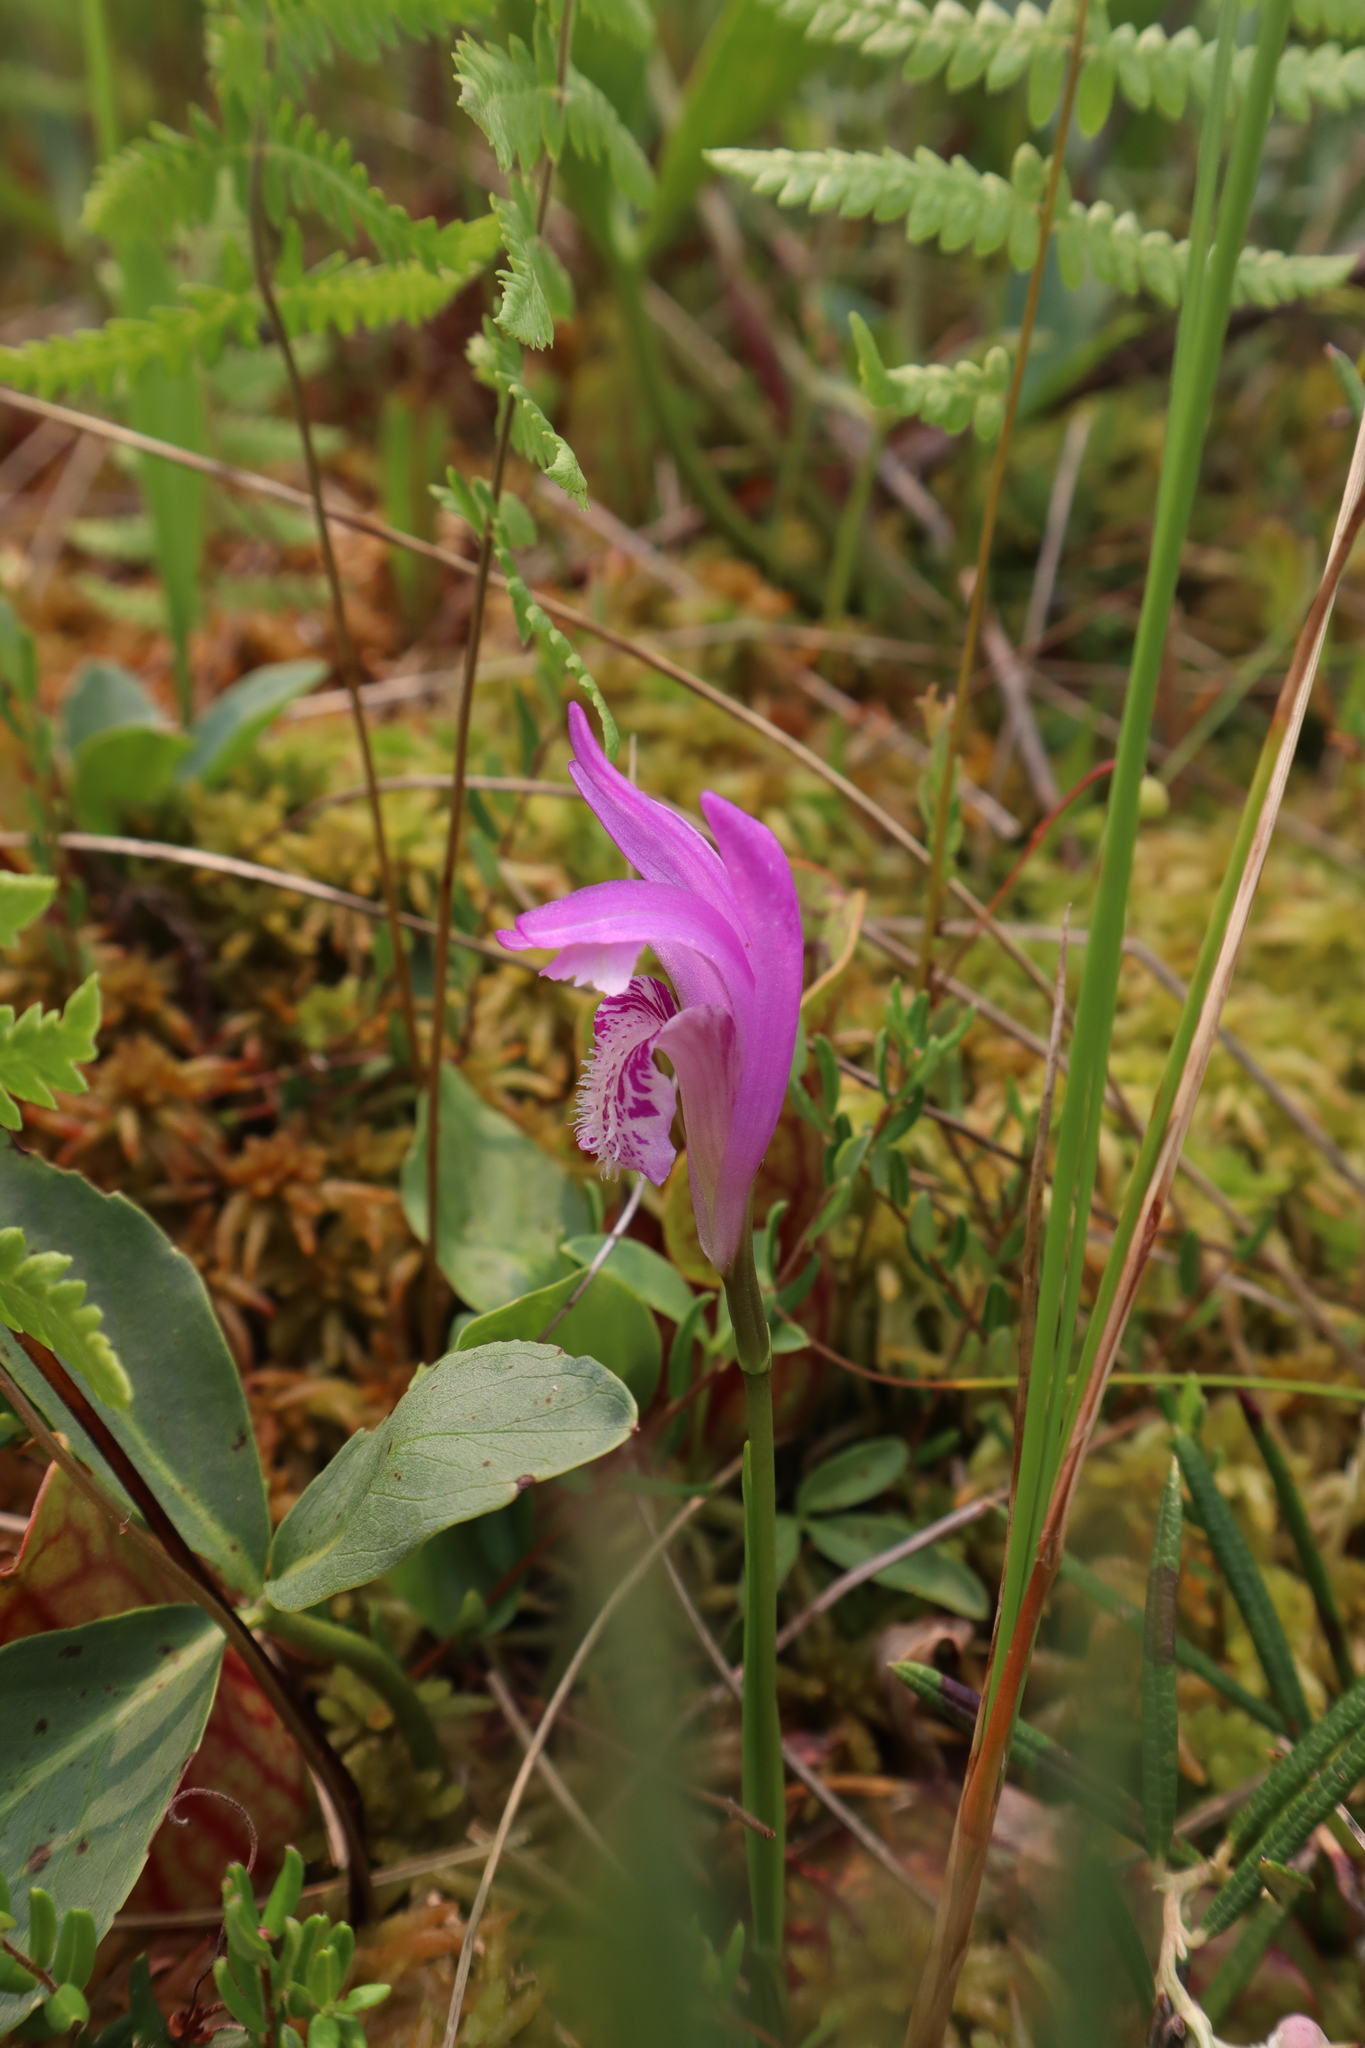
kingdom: Plantae
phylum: Tracheophyta
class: Liliopsida
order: Asparagales
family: Orchidaceae
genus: Arethusa
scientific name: Arethusa bulbosa
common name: Arethusa
